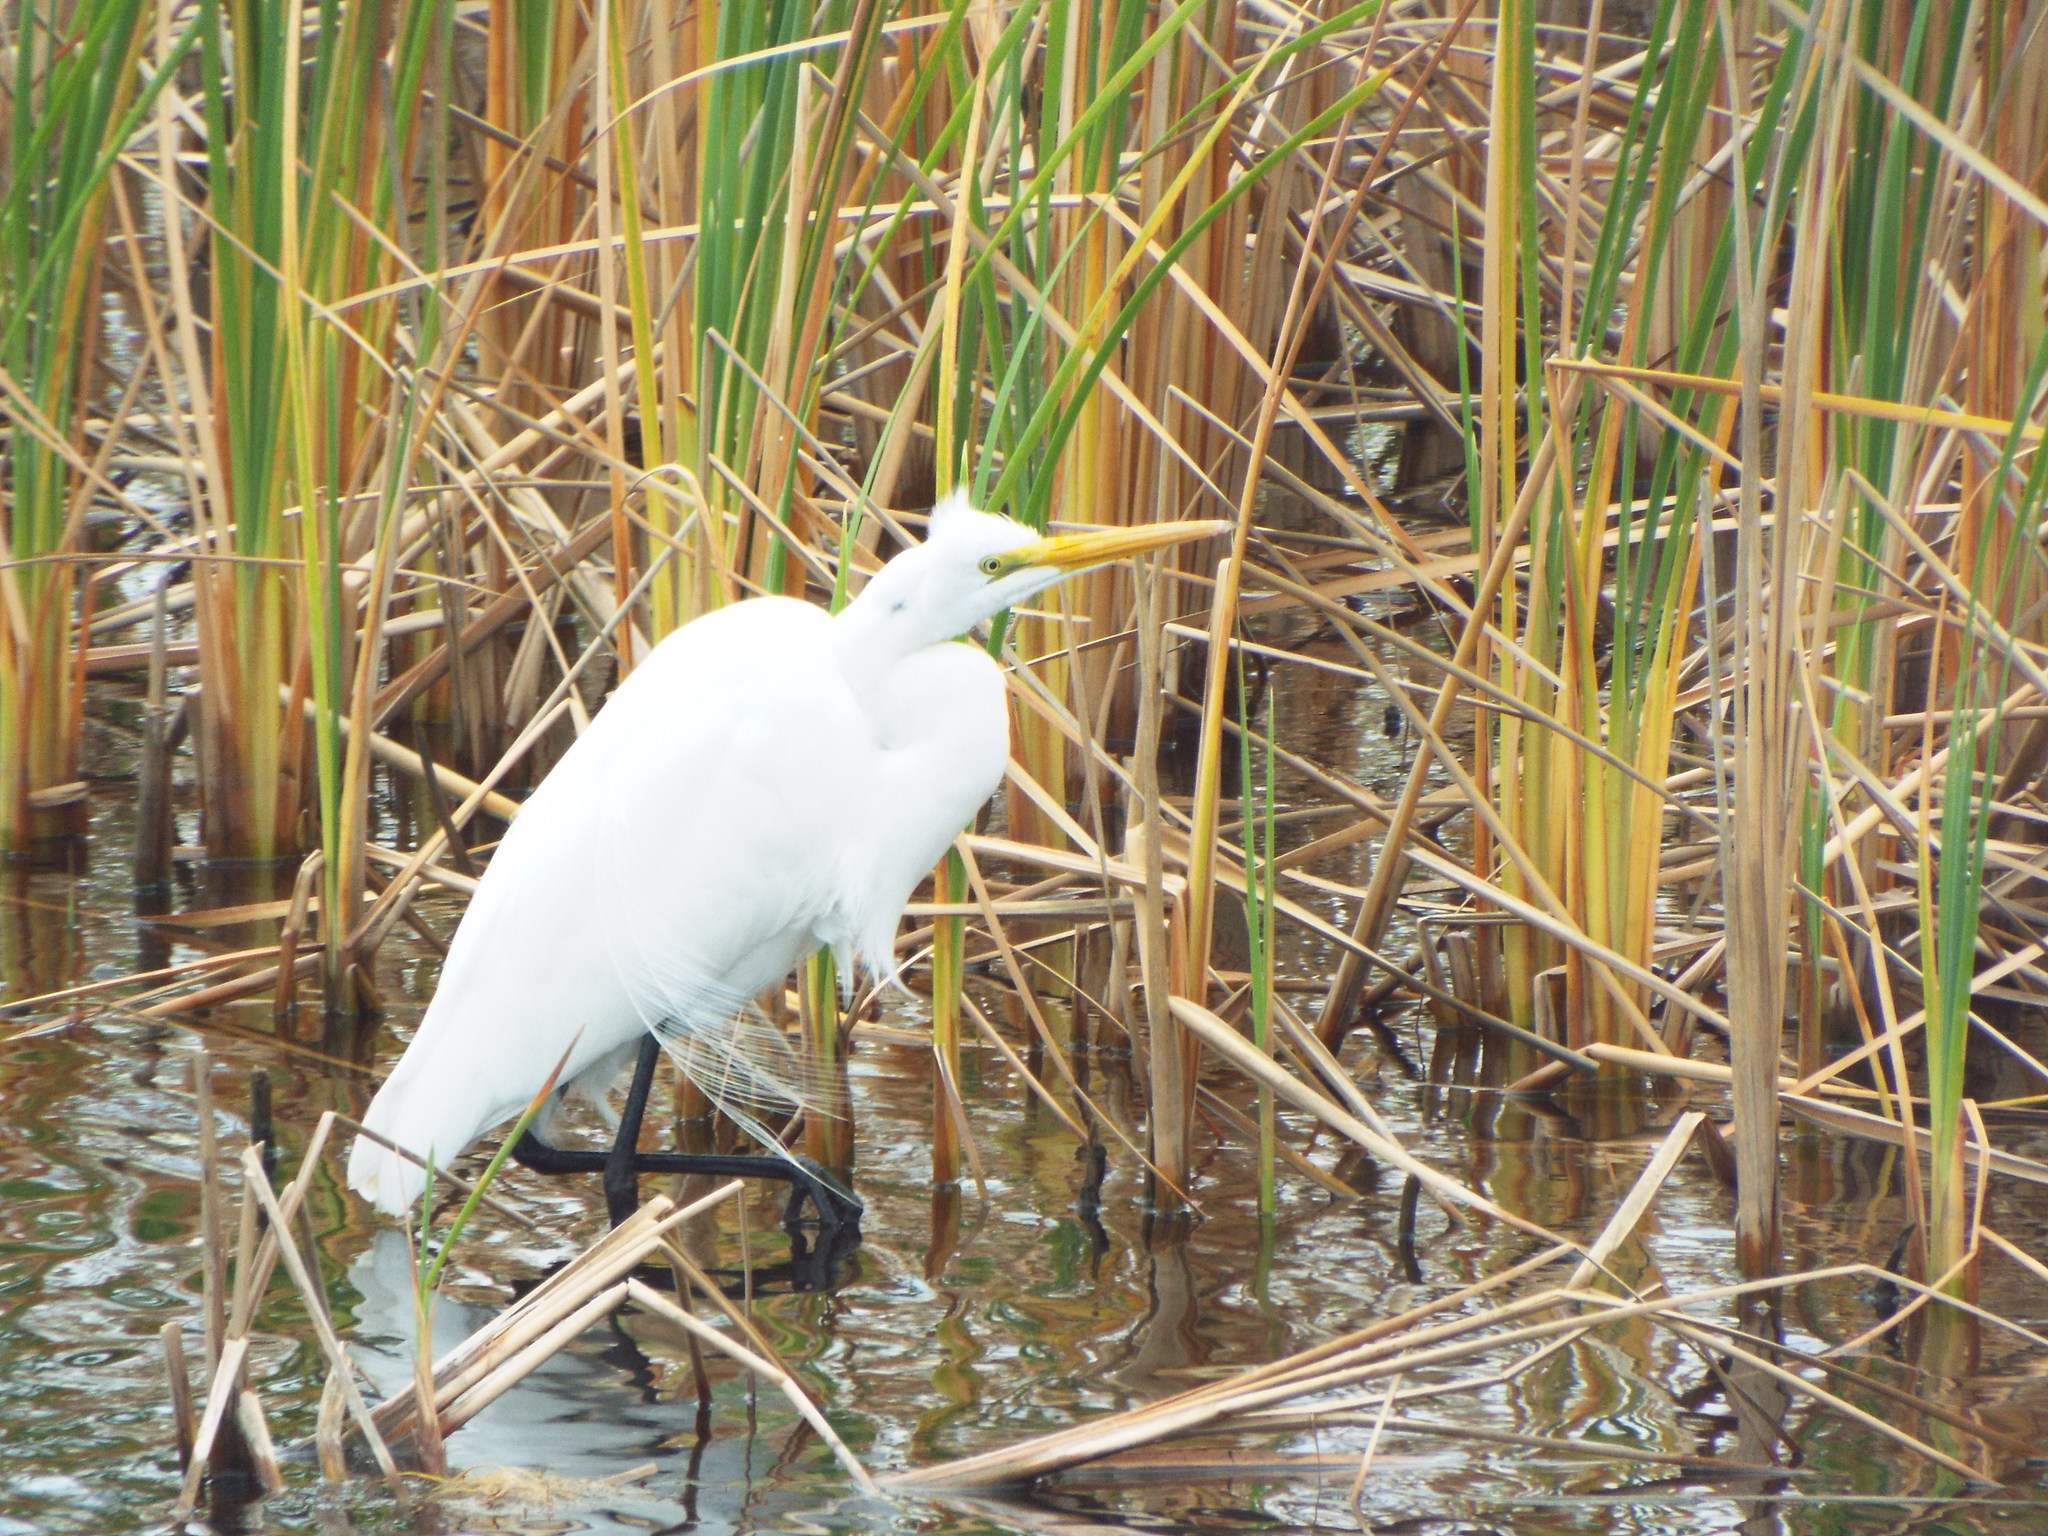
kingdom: Animalia
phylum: Chordata
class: Aves
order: Pelecaniformes
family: Ardeidae
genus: Ardea
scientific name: Ardea alba
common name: Great egret
